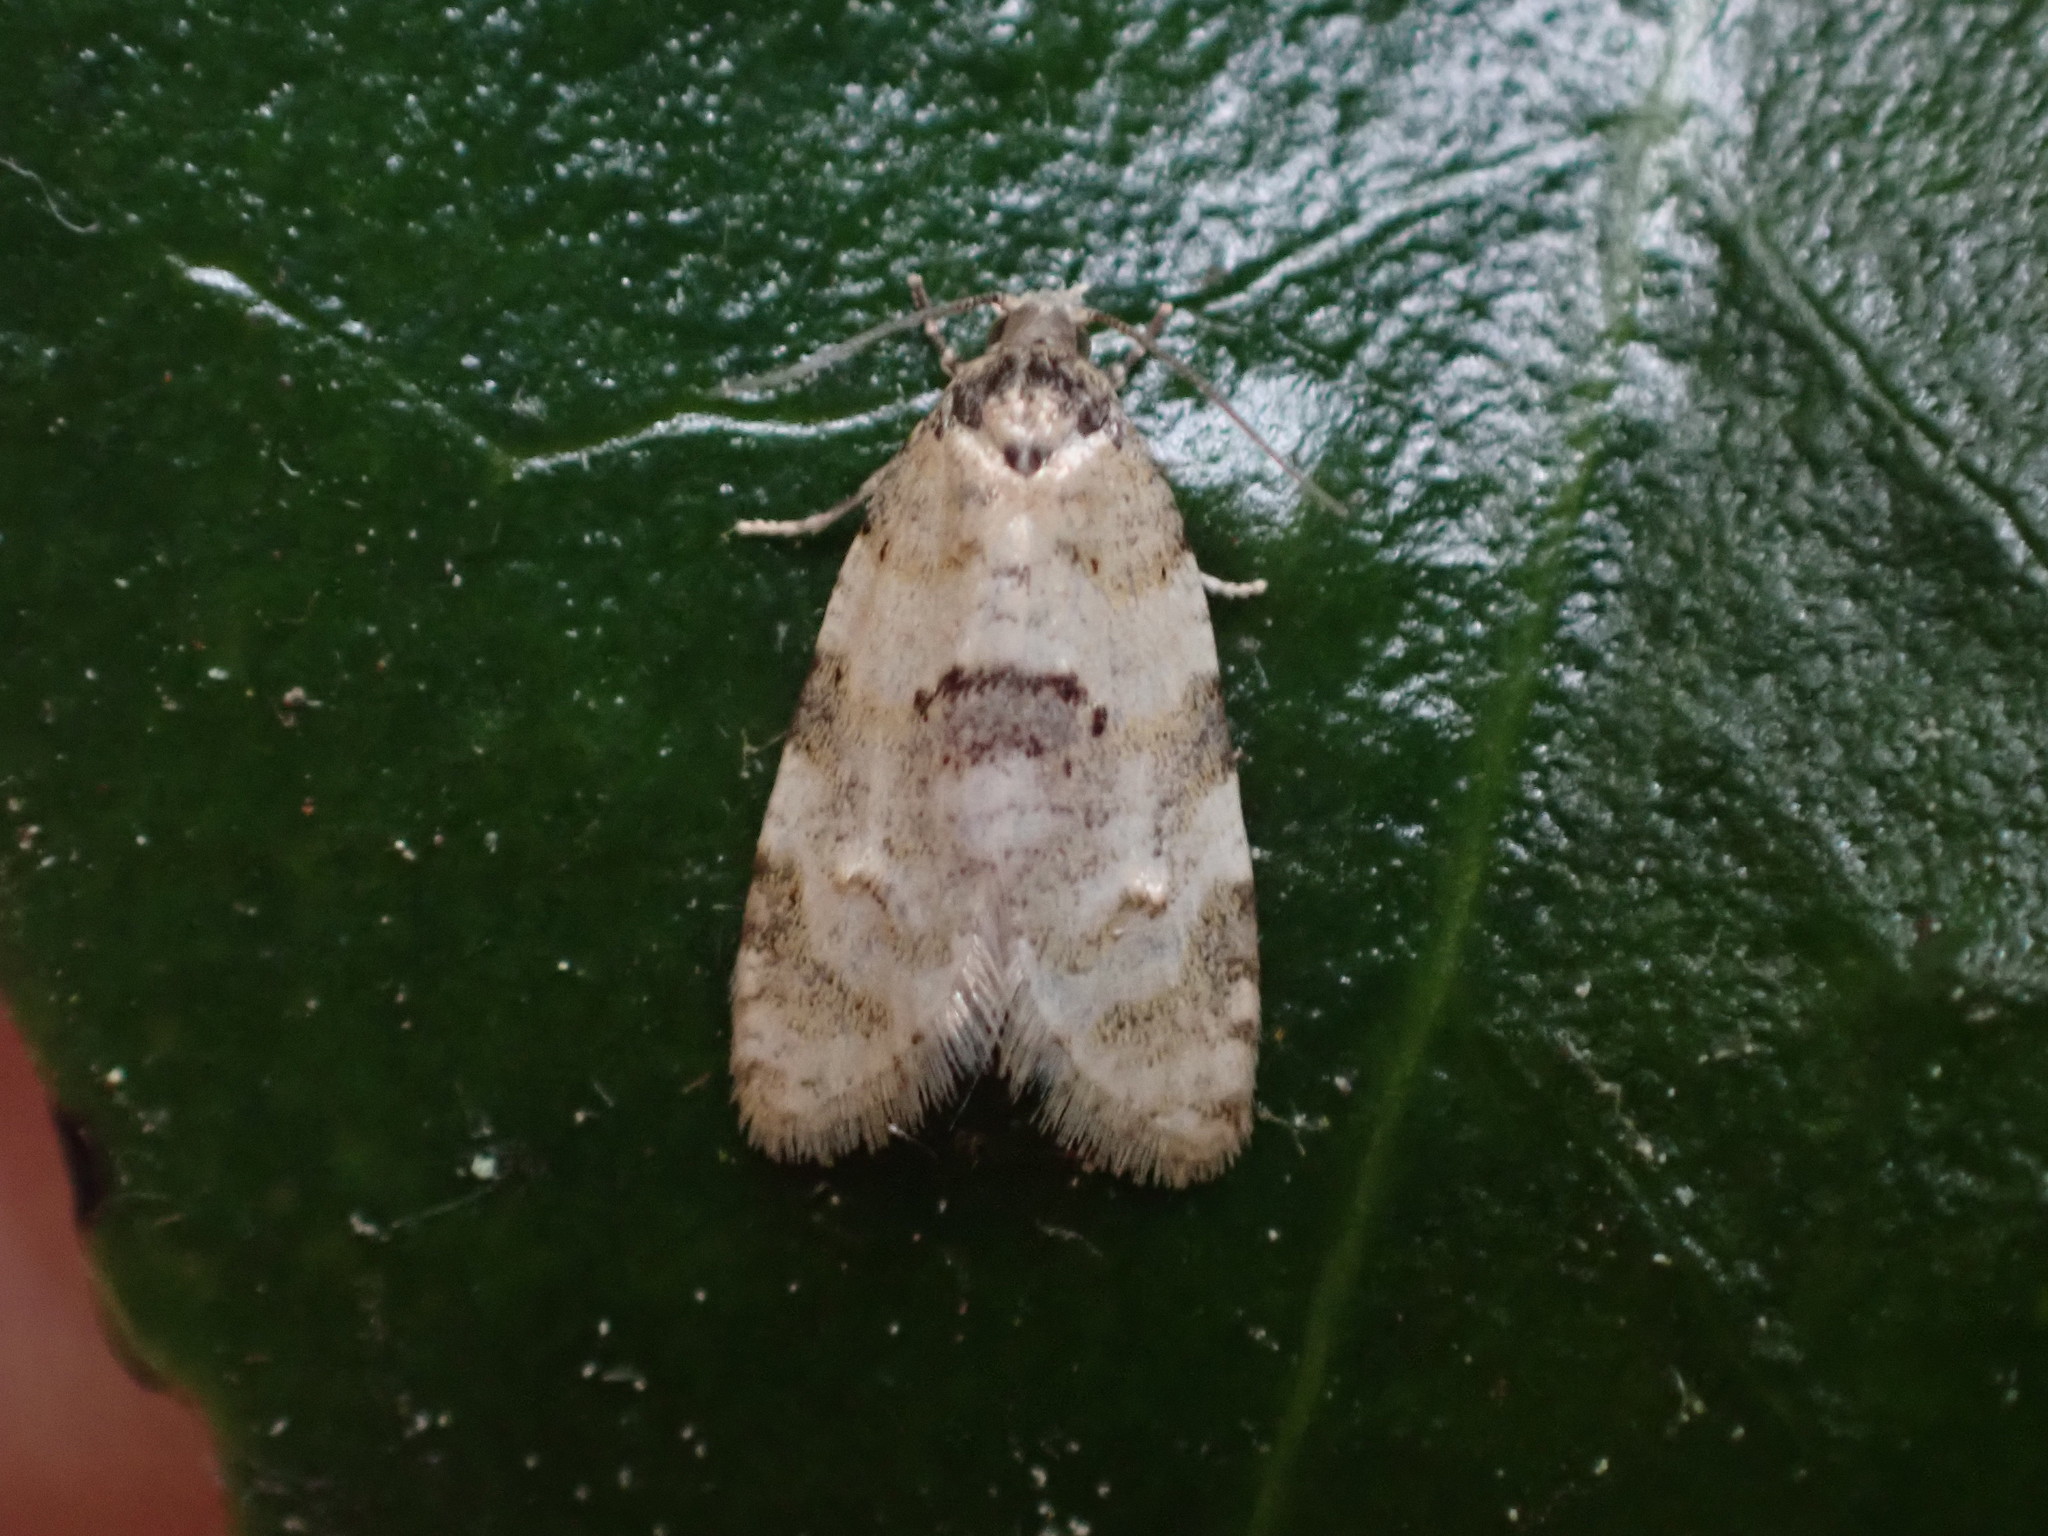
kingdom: Animalia
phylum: Arthropoda
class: Insecta
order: Lepidoptera
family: Tortricidae
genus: Dipterina
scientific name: Dipterina imbriferana
